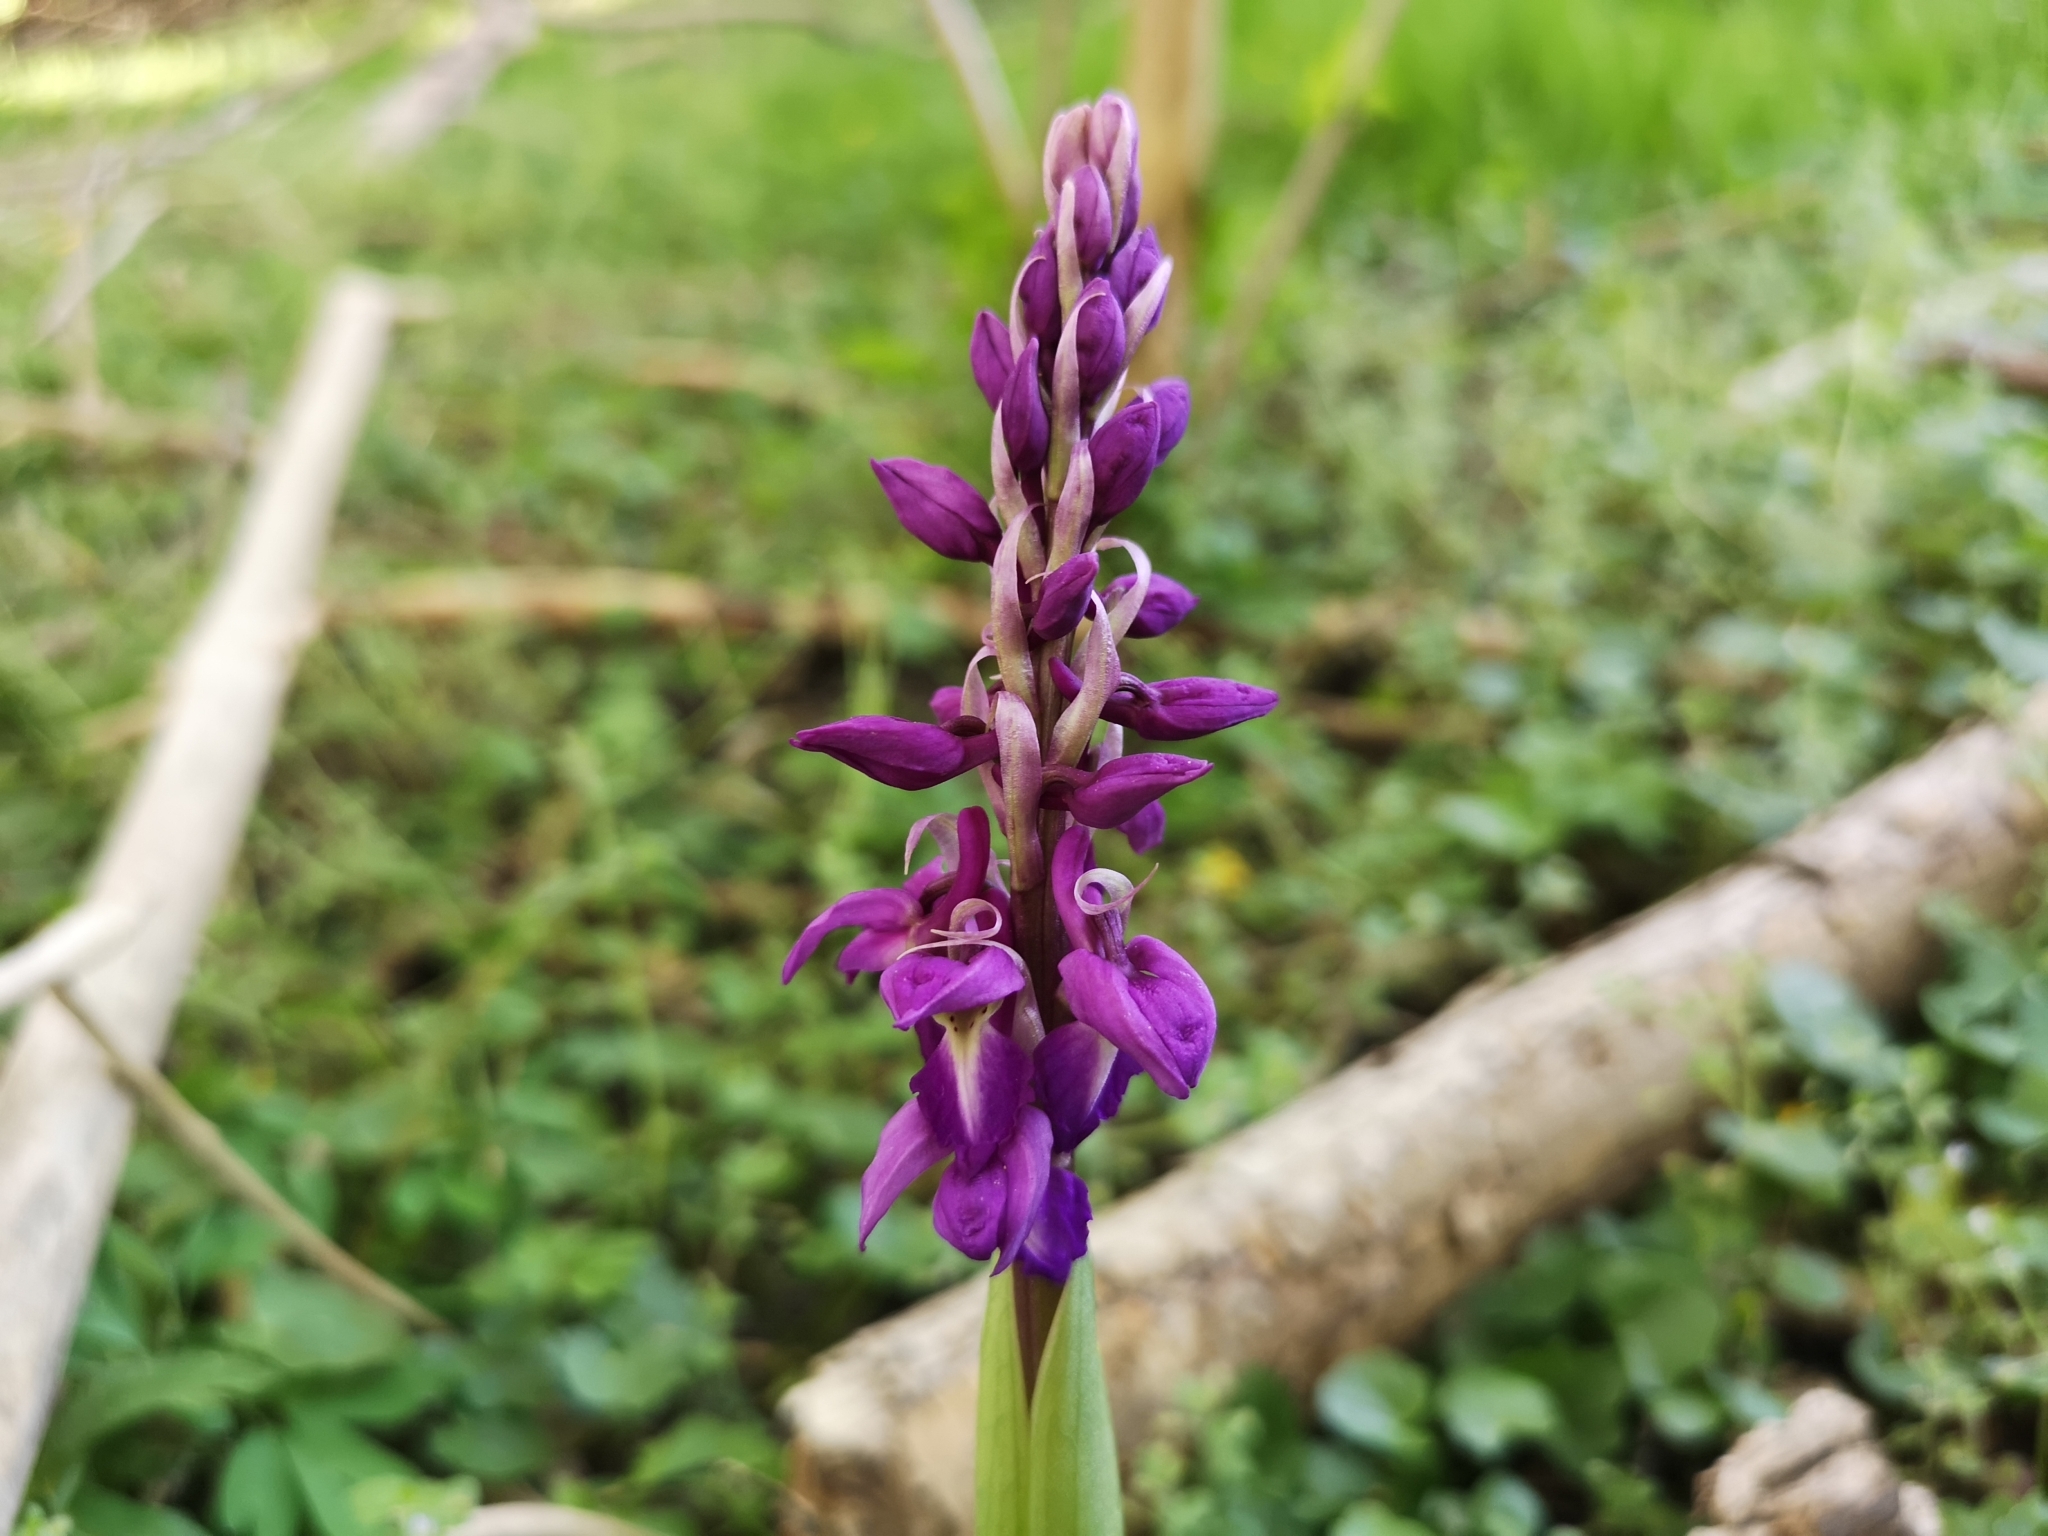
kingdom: Plantae
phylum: Tracheophyta
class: Liliopsida
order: Asparagales
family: Orchidaceae
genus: Orchis
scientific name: Orchis mascula
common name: Early-purple orchid
